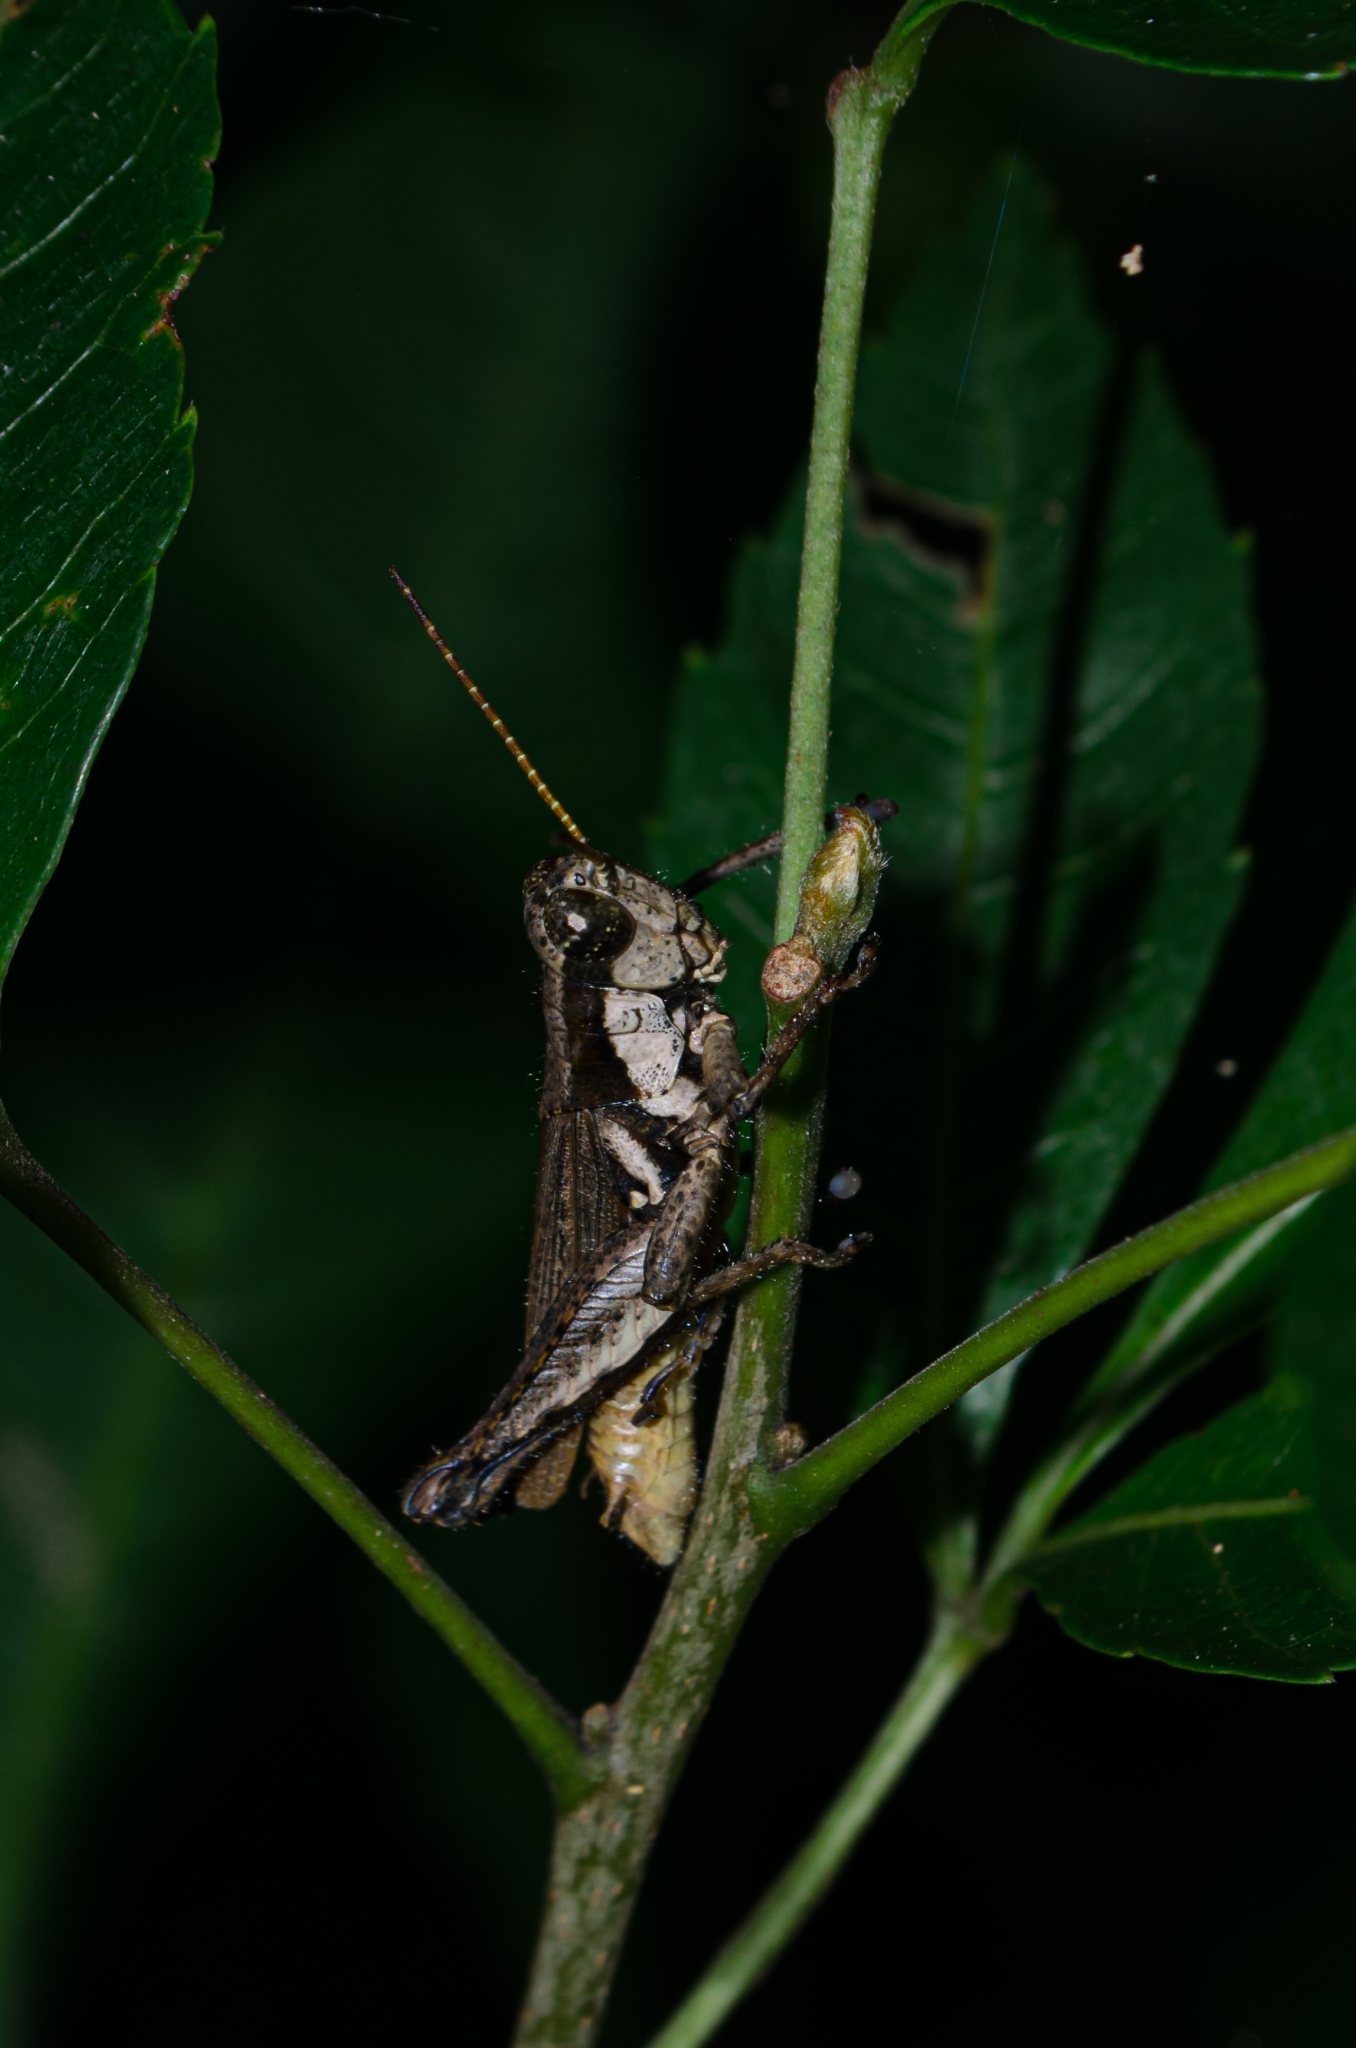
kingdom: Animalia
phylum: Arthropoda
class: Insecta
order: Orthoptera
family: Acrididae
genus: Ronderosia
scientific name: Ronderosia bergii
